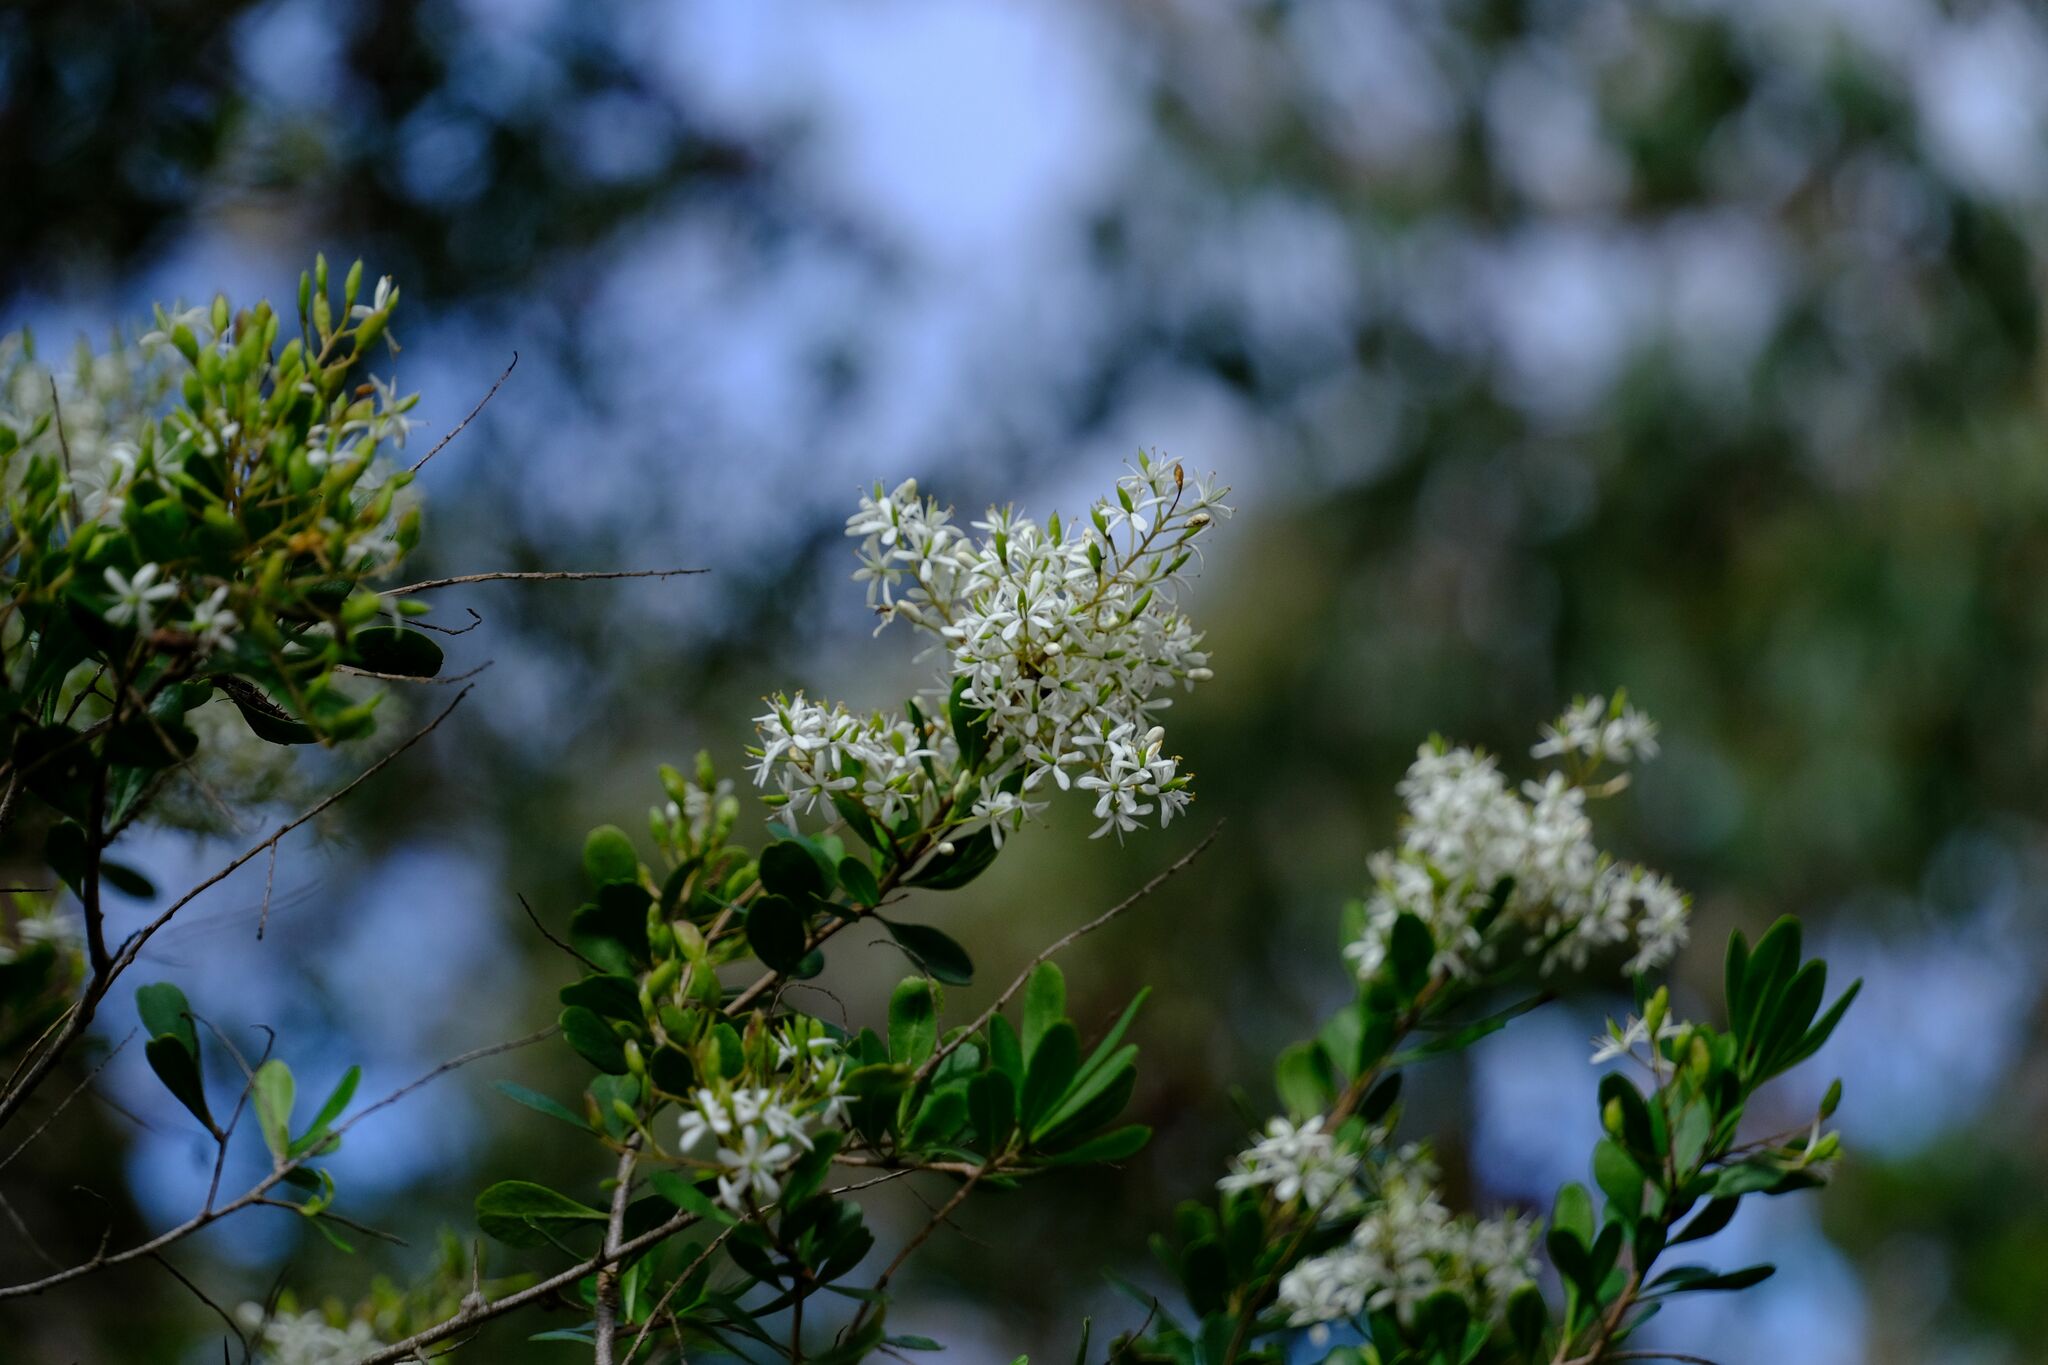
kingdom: Plantae
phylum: Tracheophyta
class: Magnoliopsida
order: Apiales
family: Pittosporaceae
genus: Bursaria
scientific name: Bursaria spinosa
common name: Australian blackthorn
